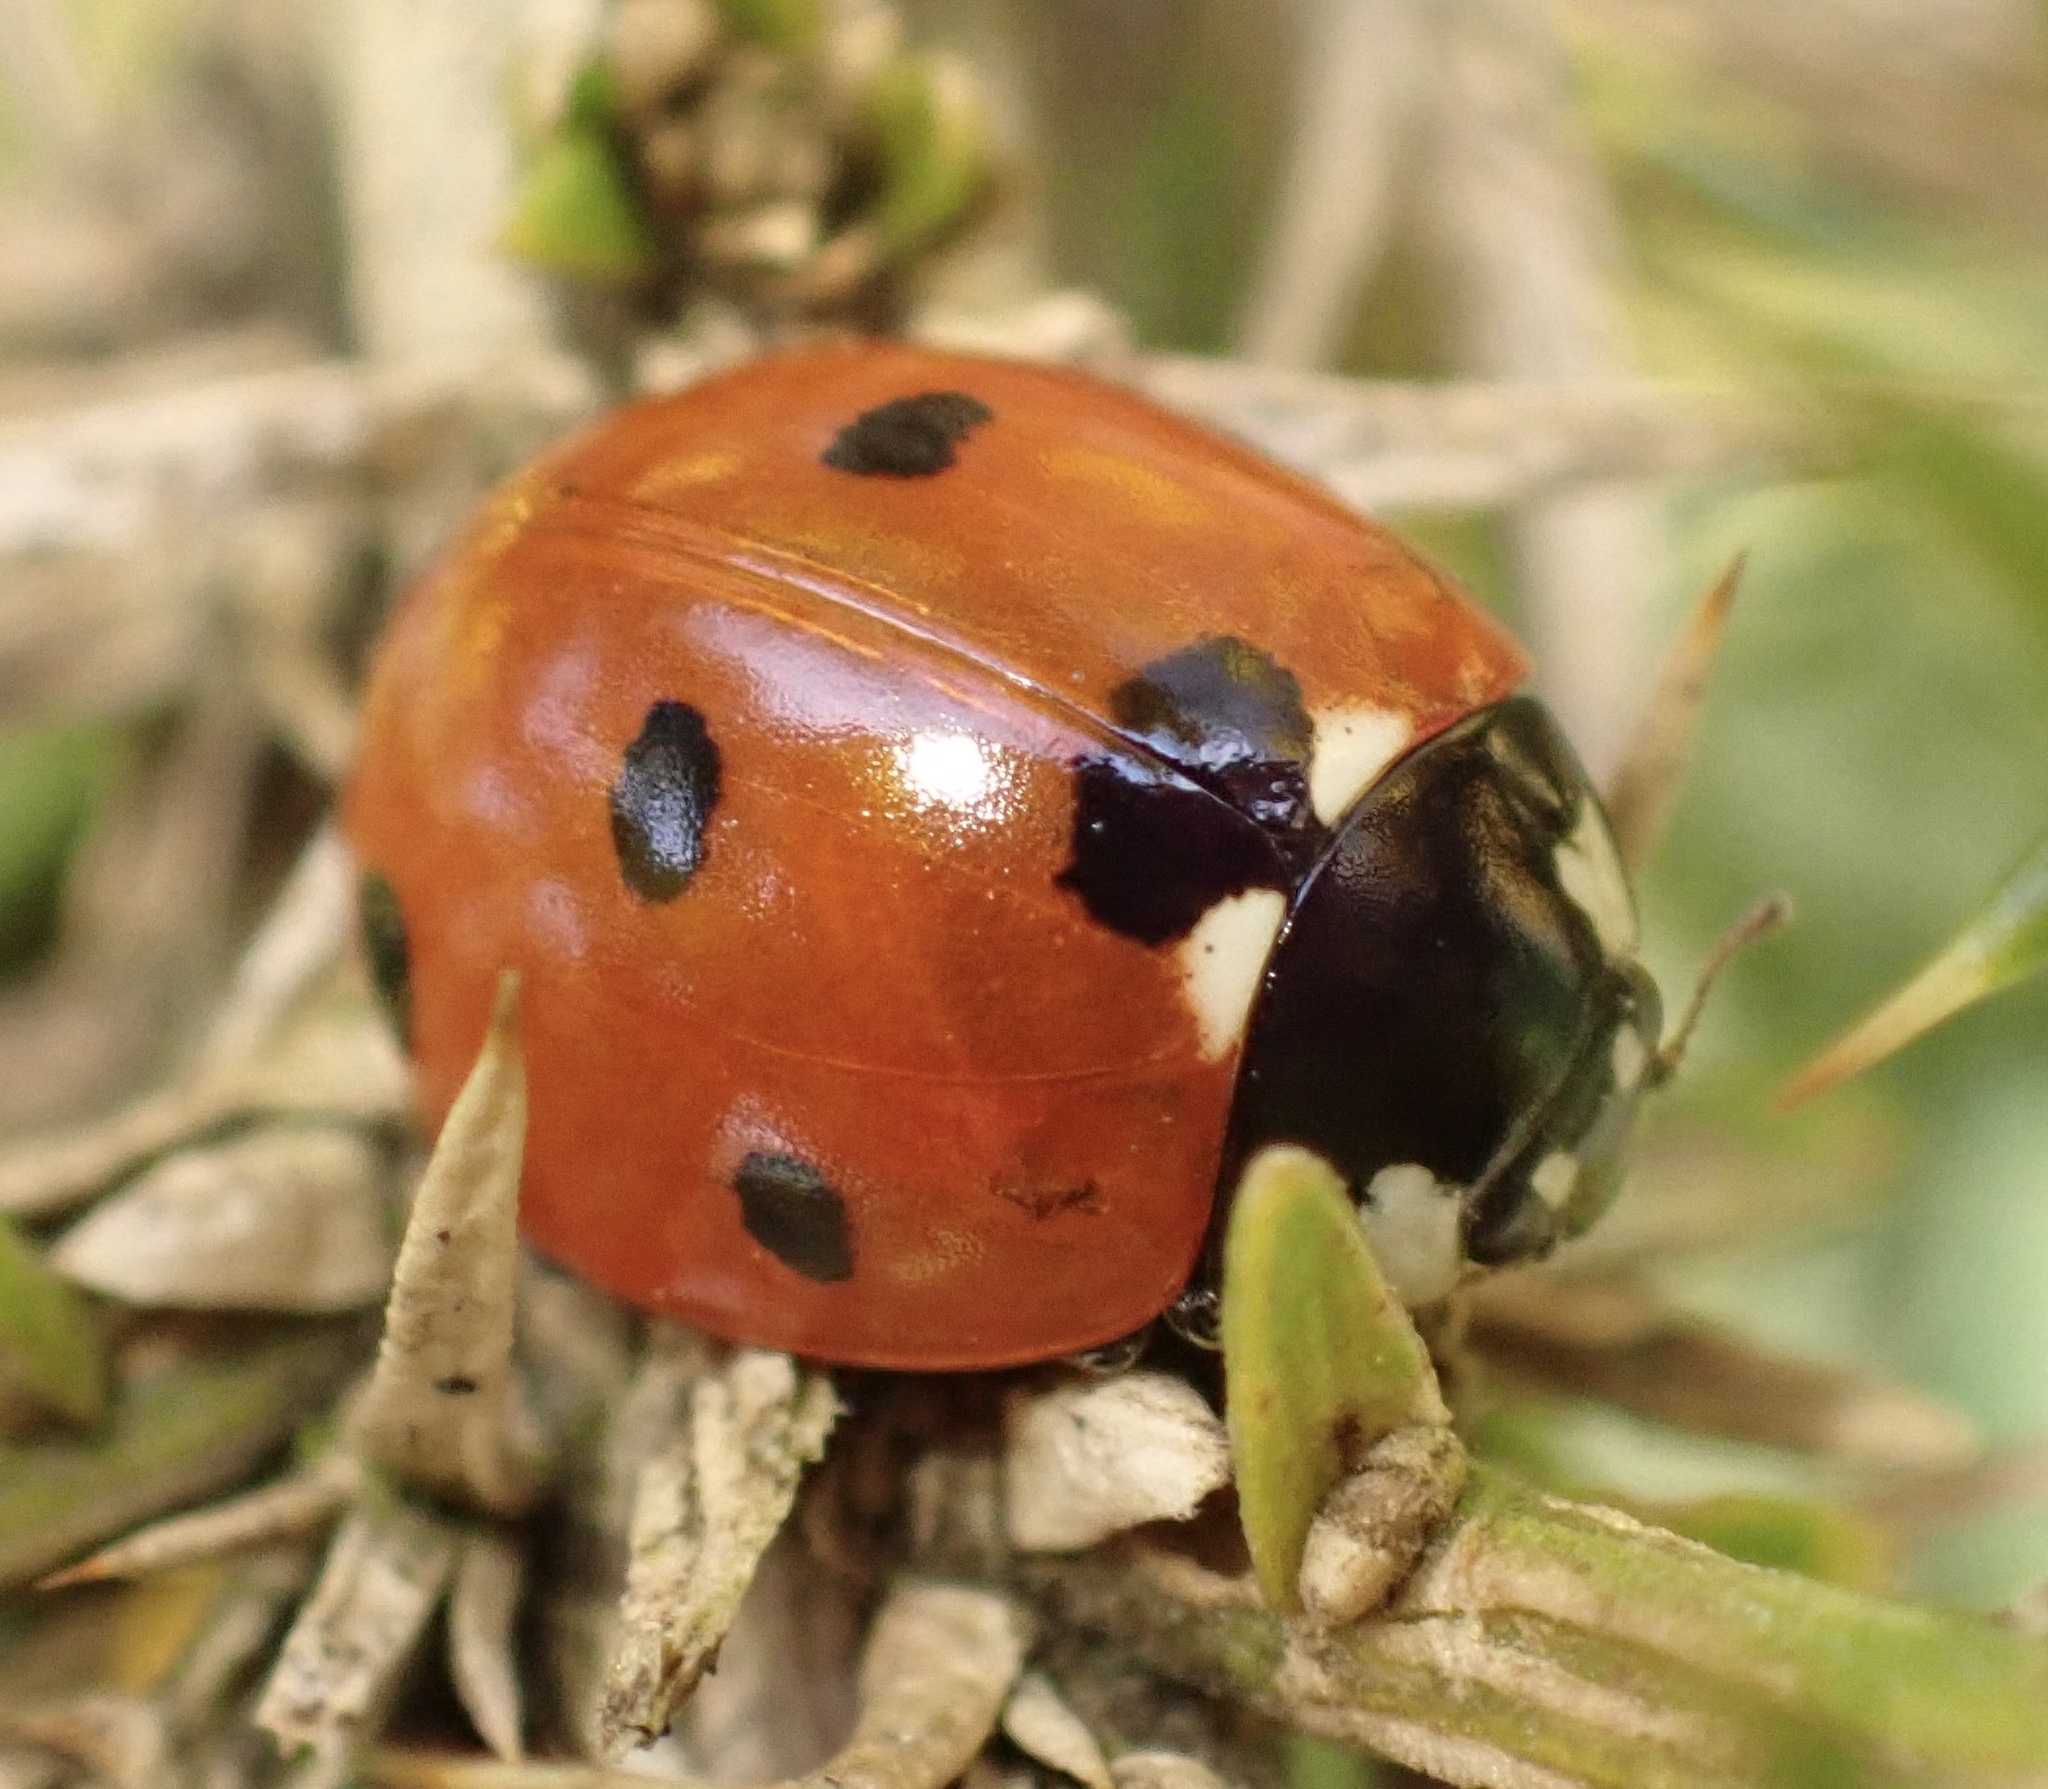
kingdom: Animalia
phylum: Arthropoda
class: Insecta
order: Coleoptera
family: Coccinellidae
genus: Coccinella
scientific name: Coccinella septempunctata
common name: Sevenspotted lady beetle
